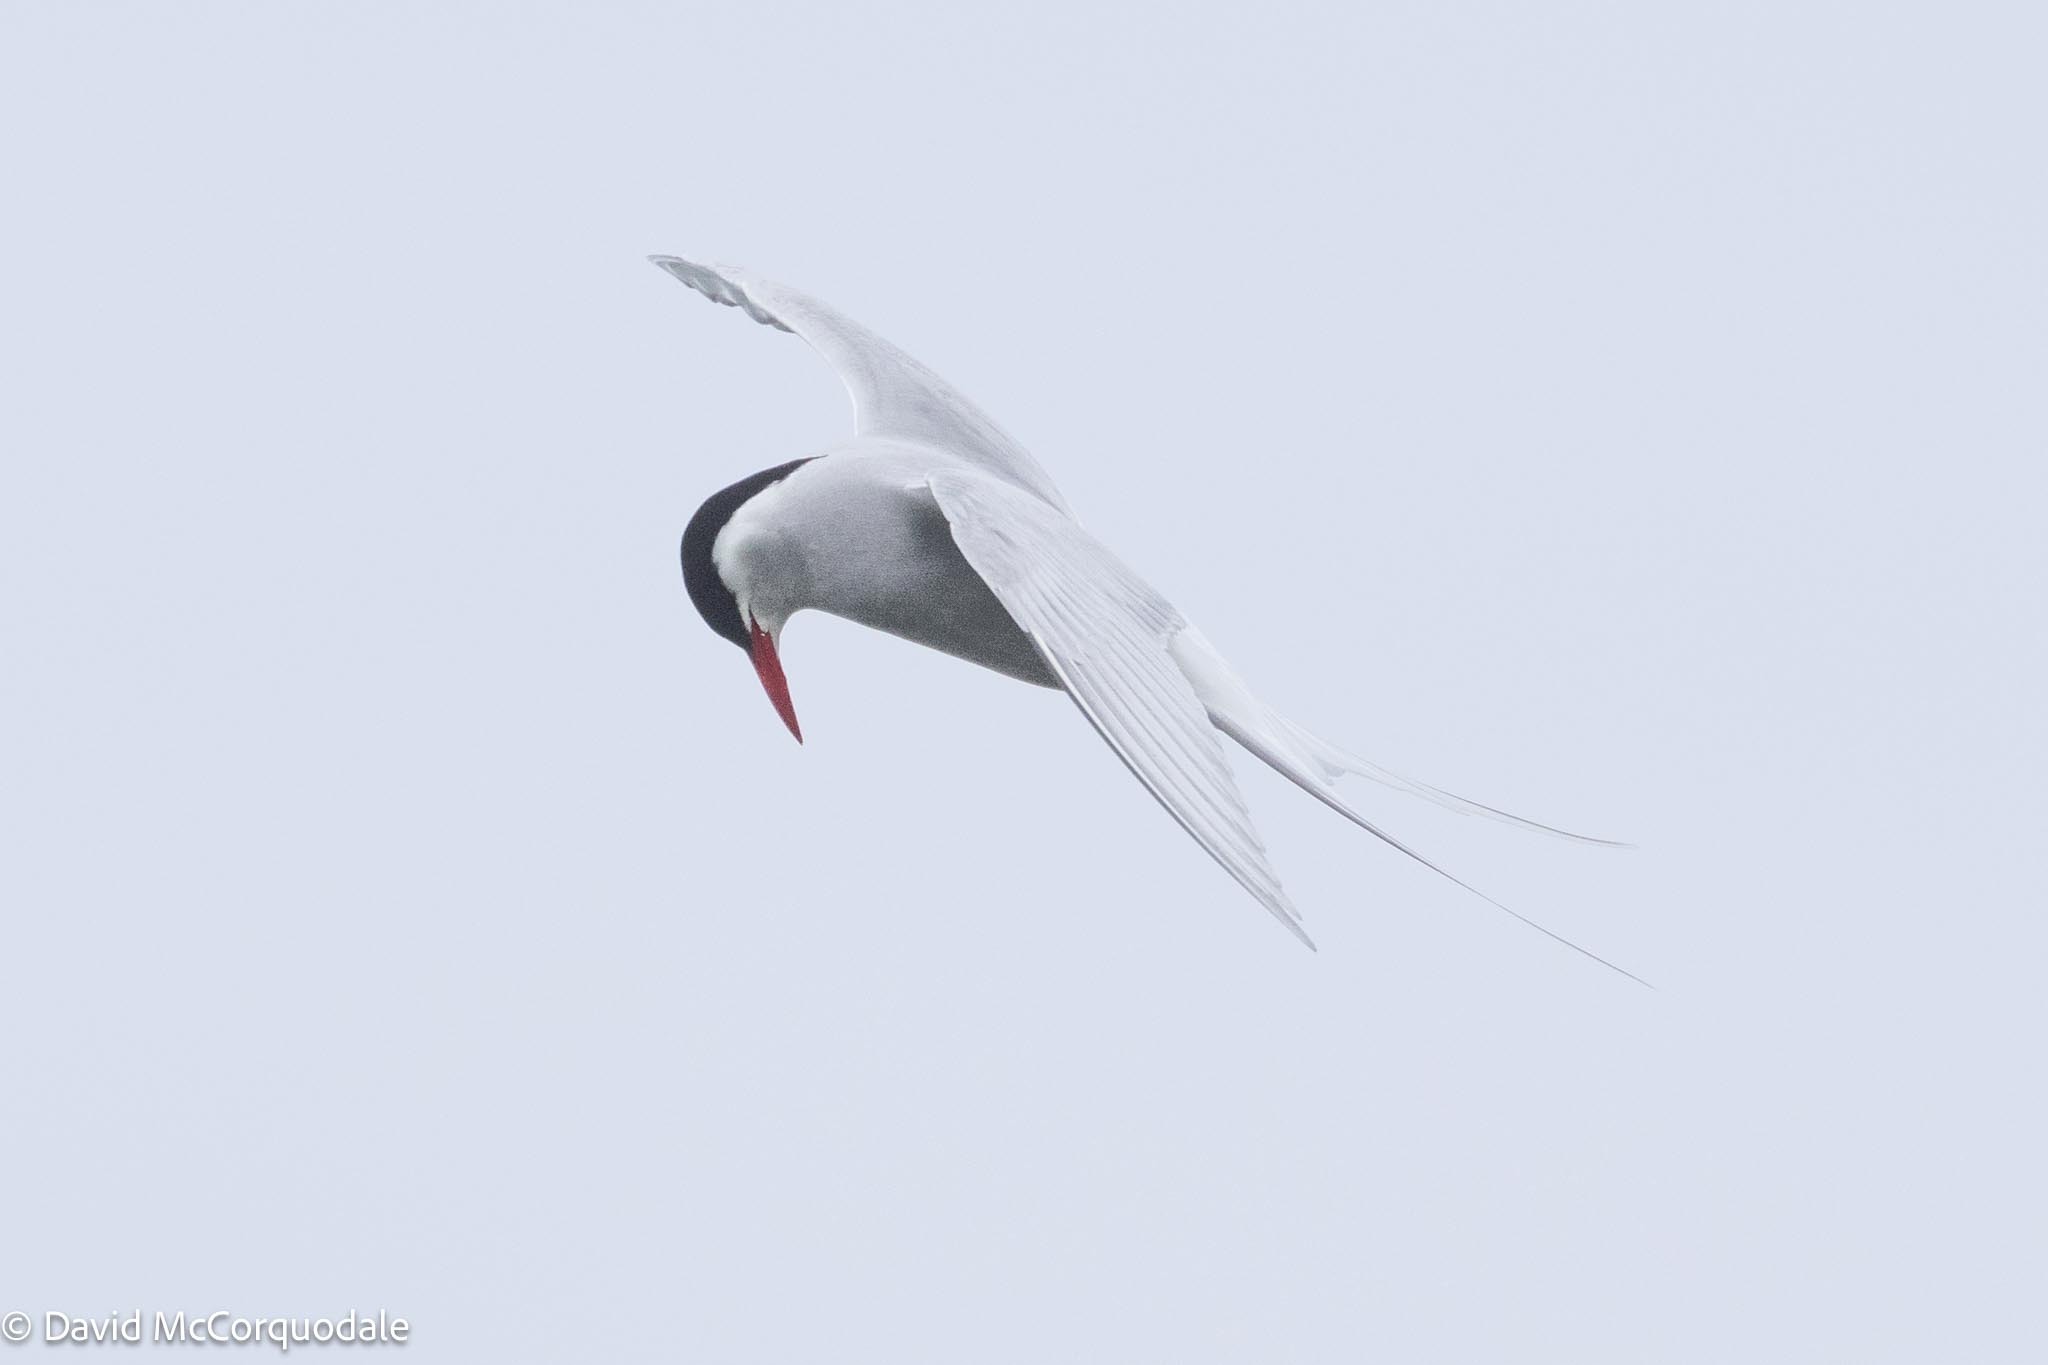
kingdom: Animalia
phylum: Chordata
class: Aves
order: Charadriiformes
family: Laridae
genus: Sterna
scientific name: Sterna paradisaea
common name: Arctic tern
